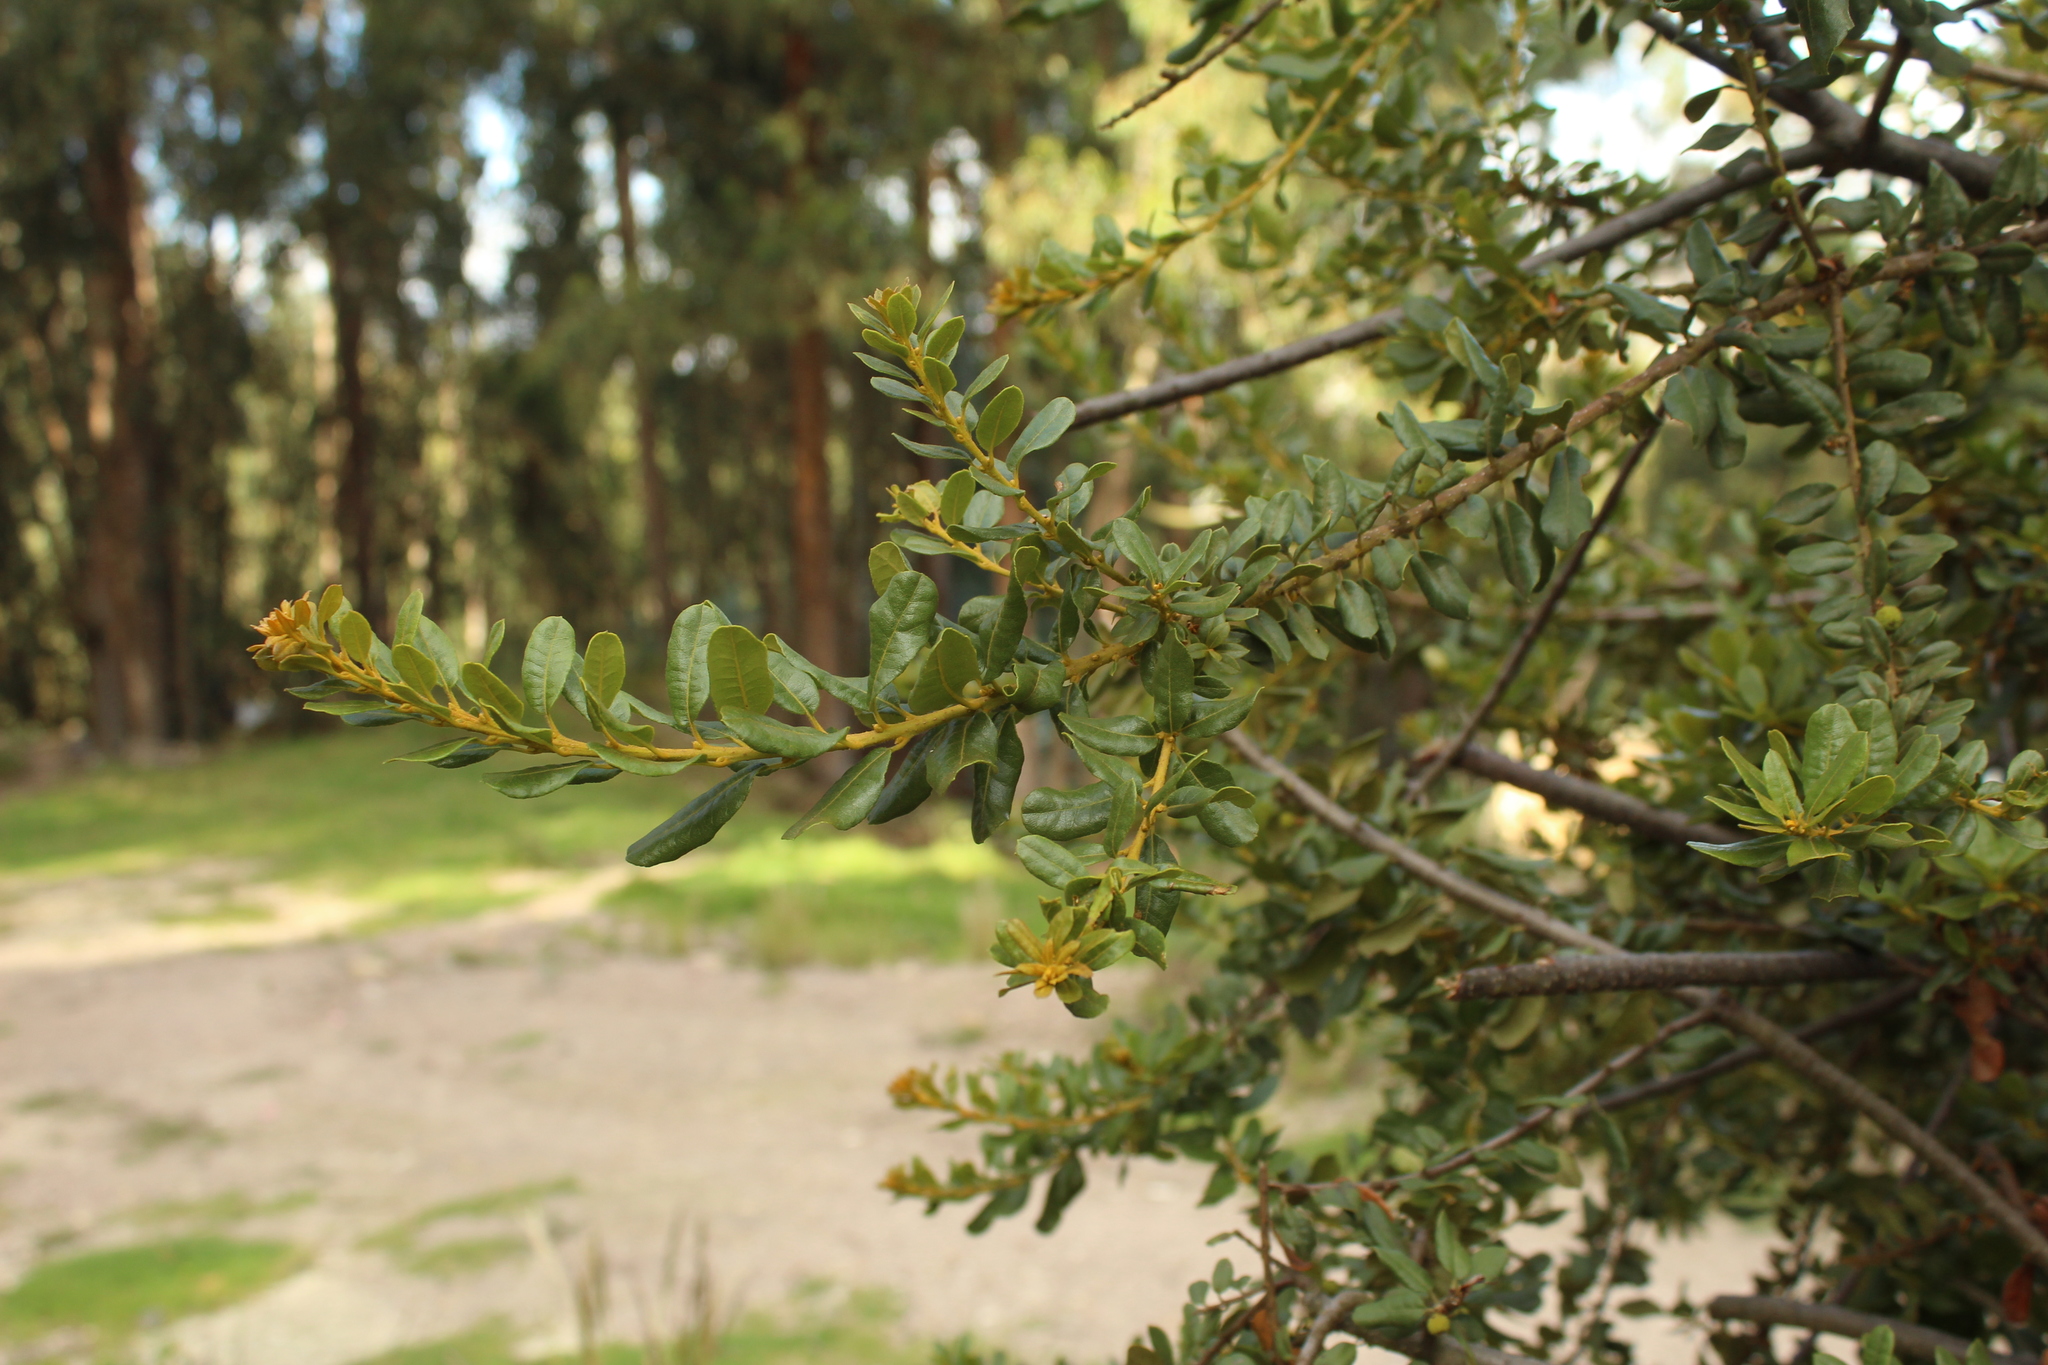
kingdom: Plantae
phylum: Tracheophyta
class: Magnoliopsida
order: Lamiales
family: Verbenaceae
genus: Duranta
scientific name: Duranta mutisii
